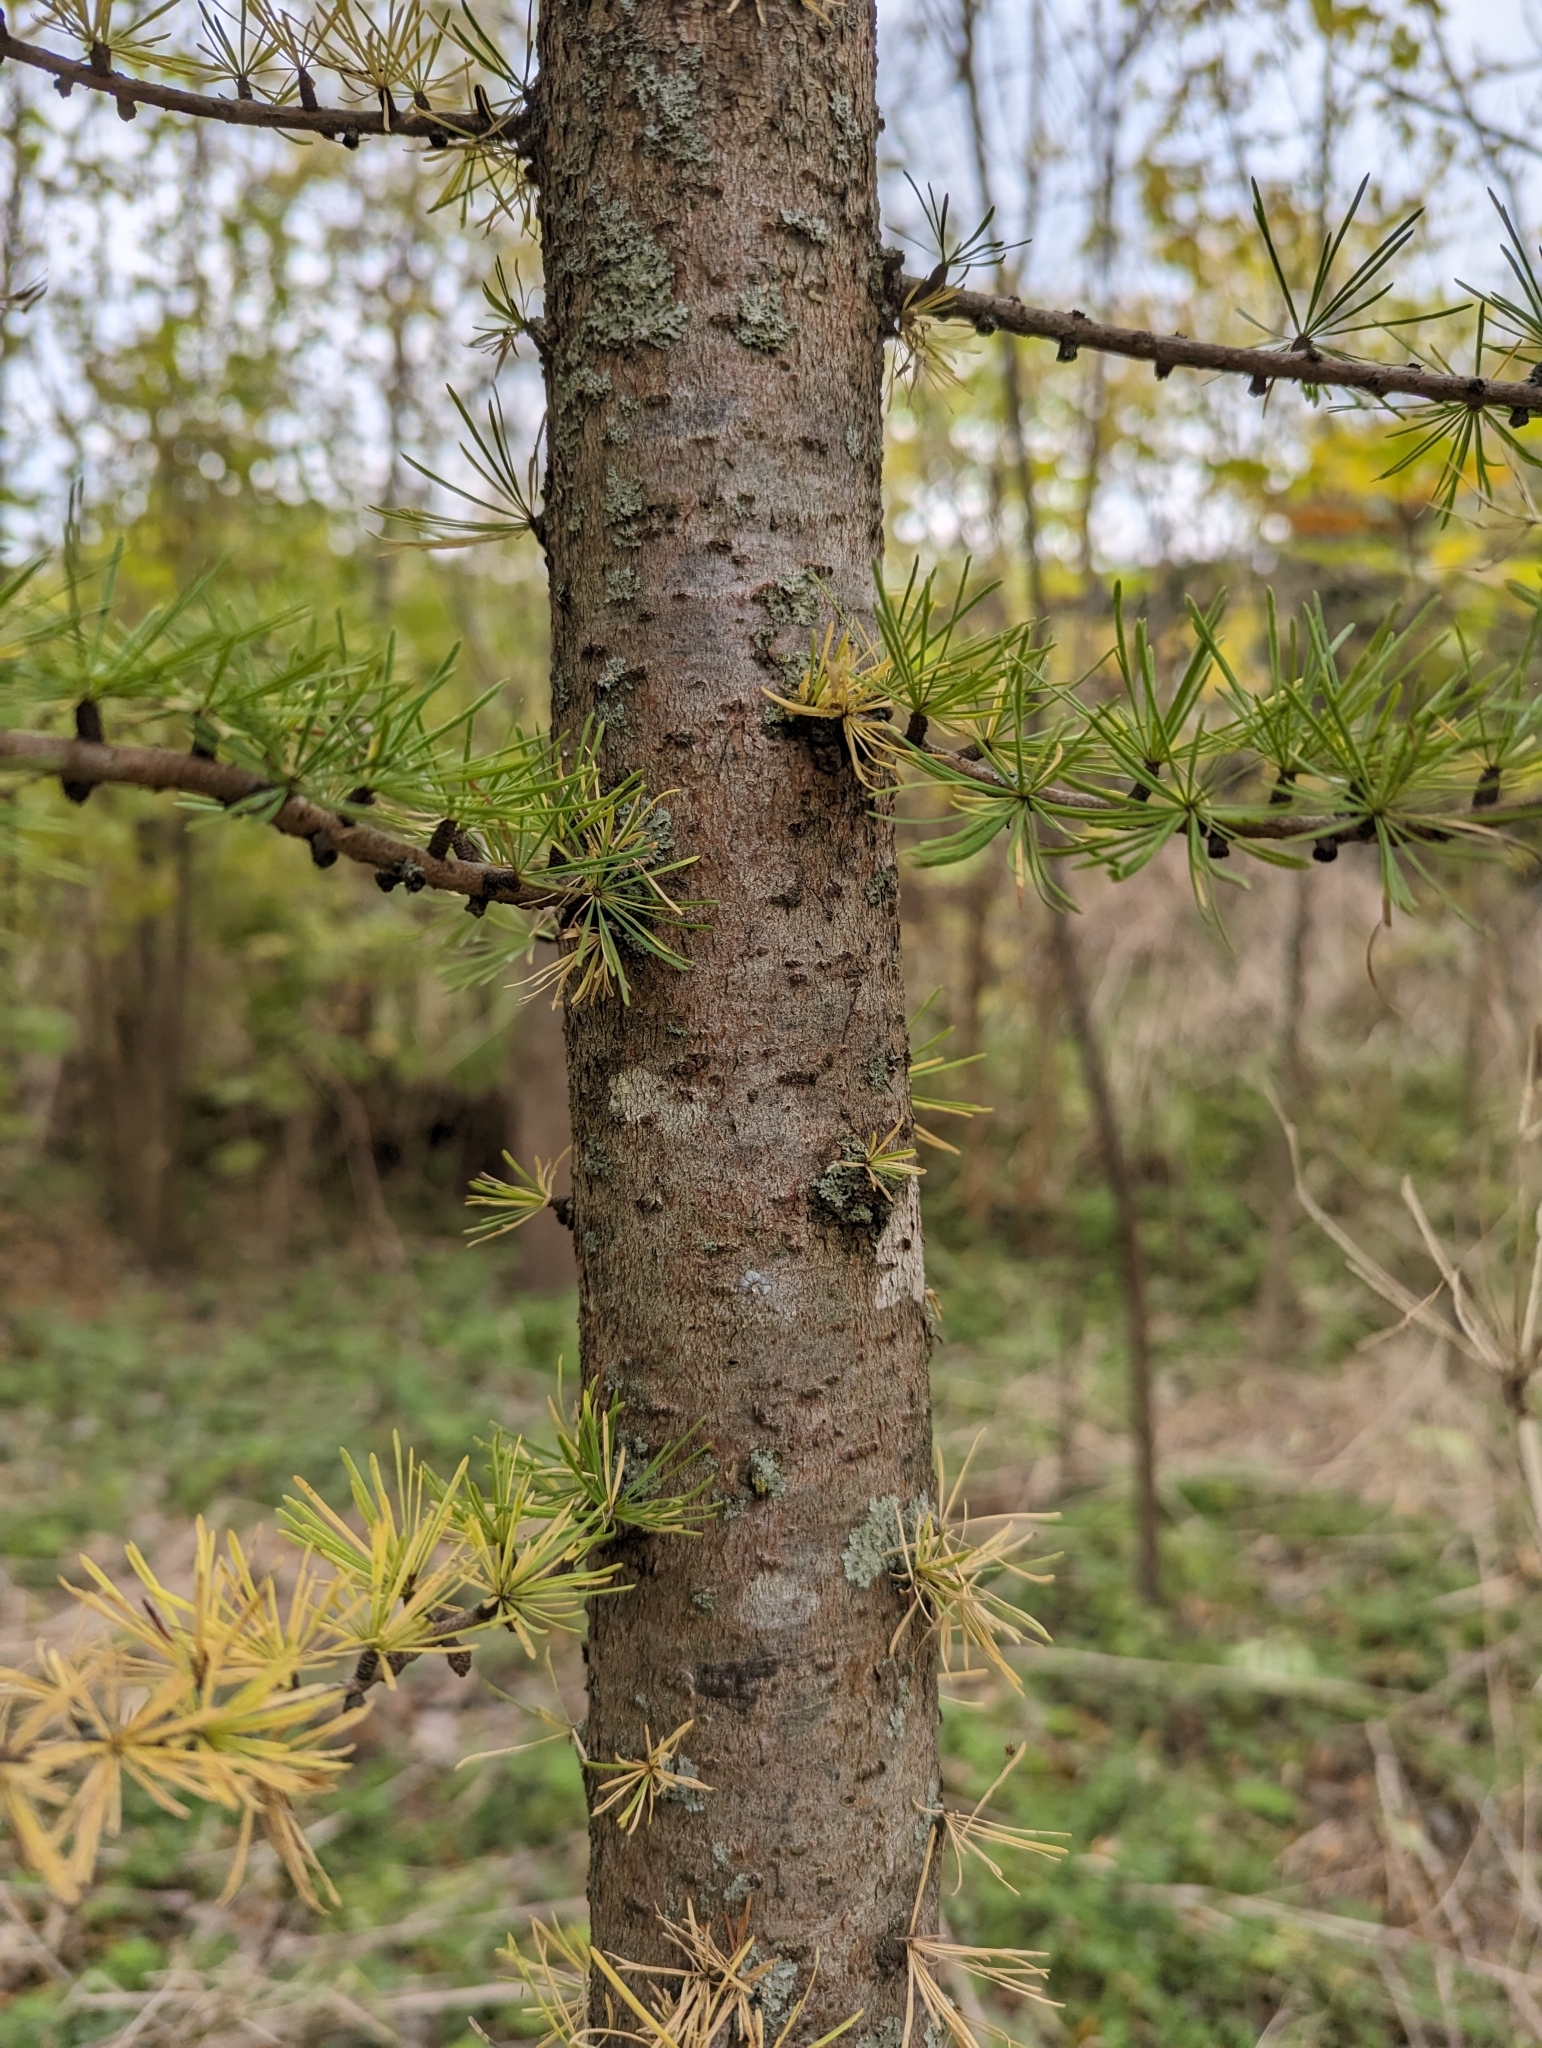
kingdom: Plantae
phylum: Tracheophyta
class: Pinopsida
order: Pinales
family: Pinaceae
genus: Larix
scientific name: Larix laricina
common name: American larch
